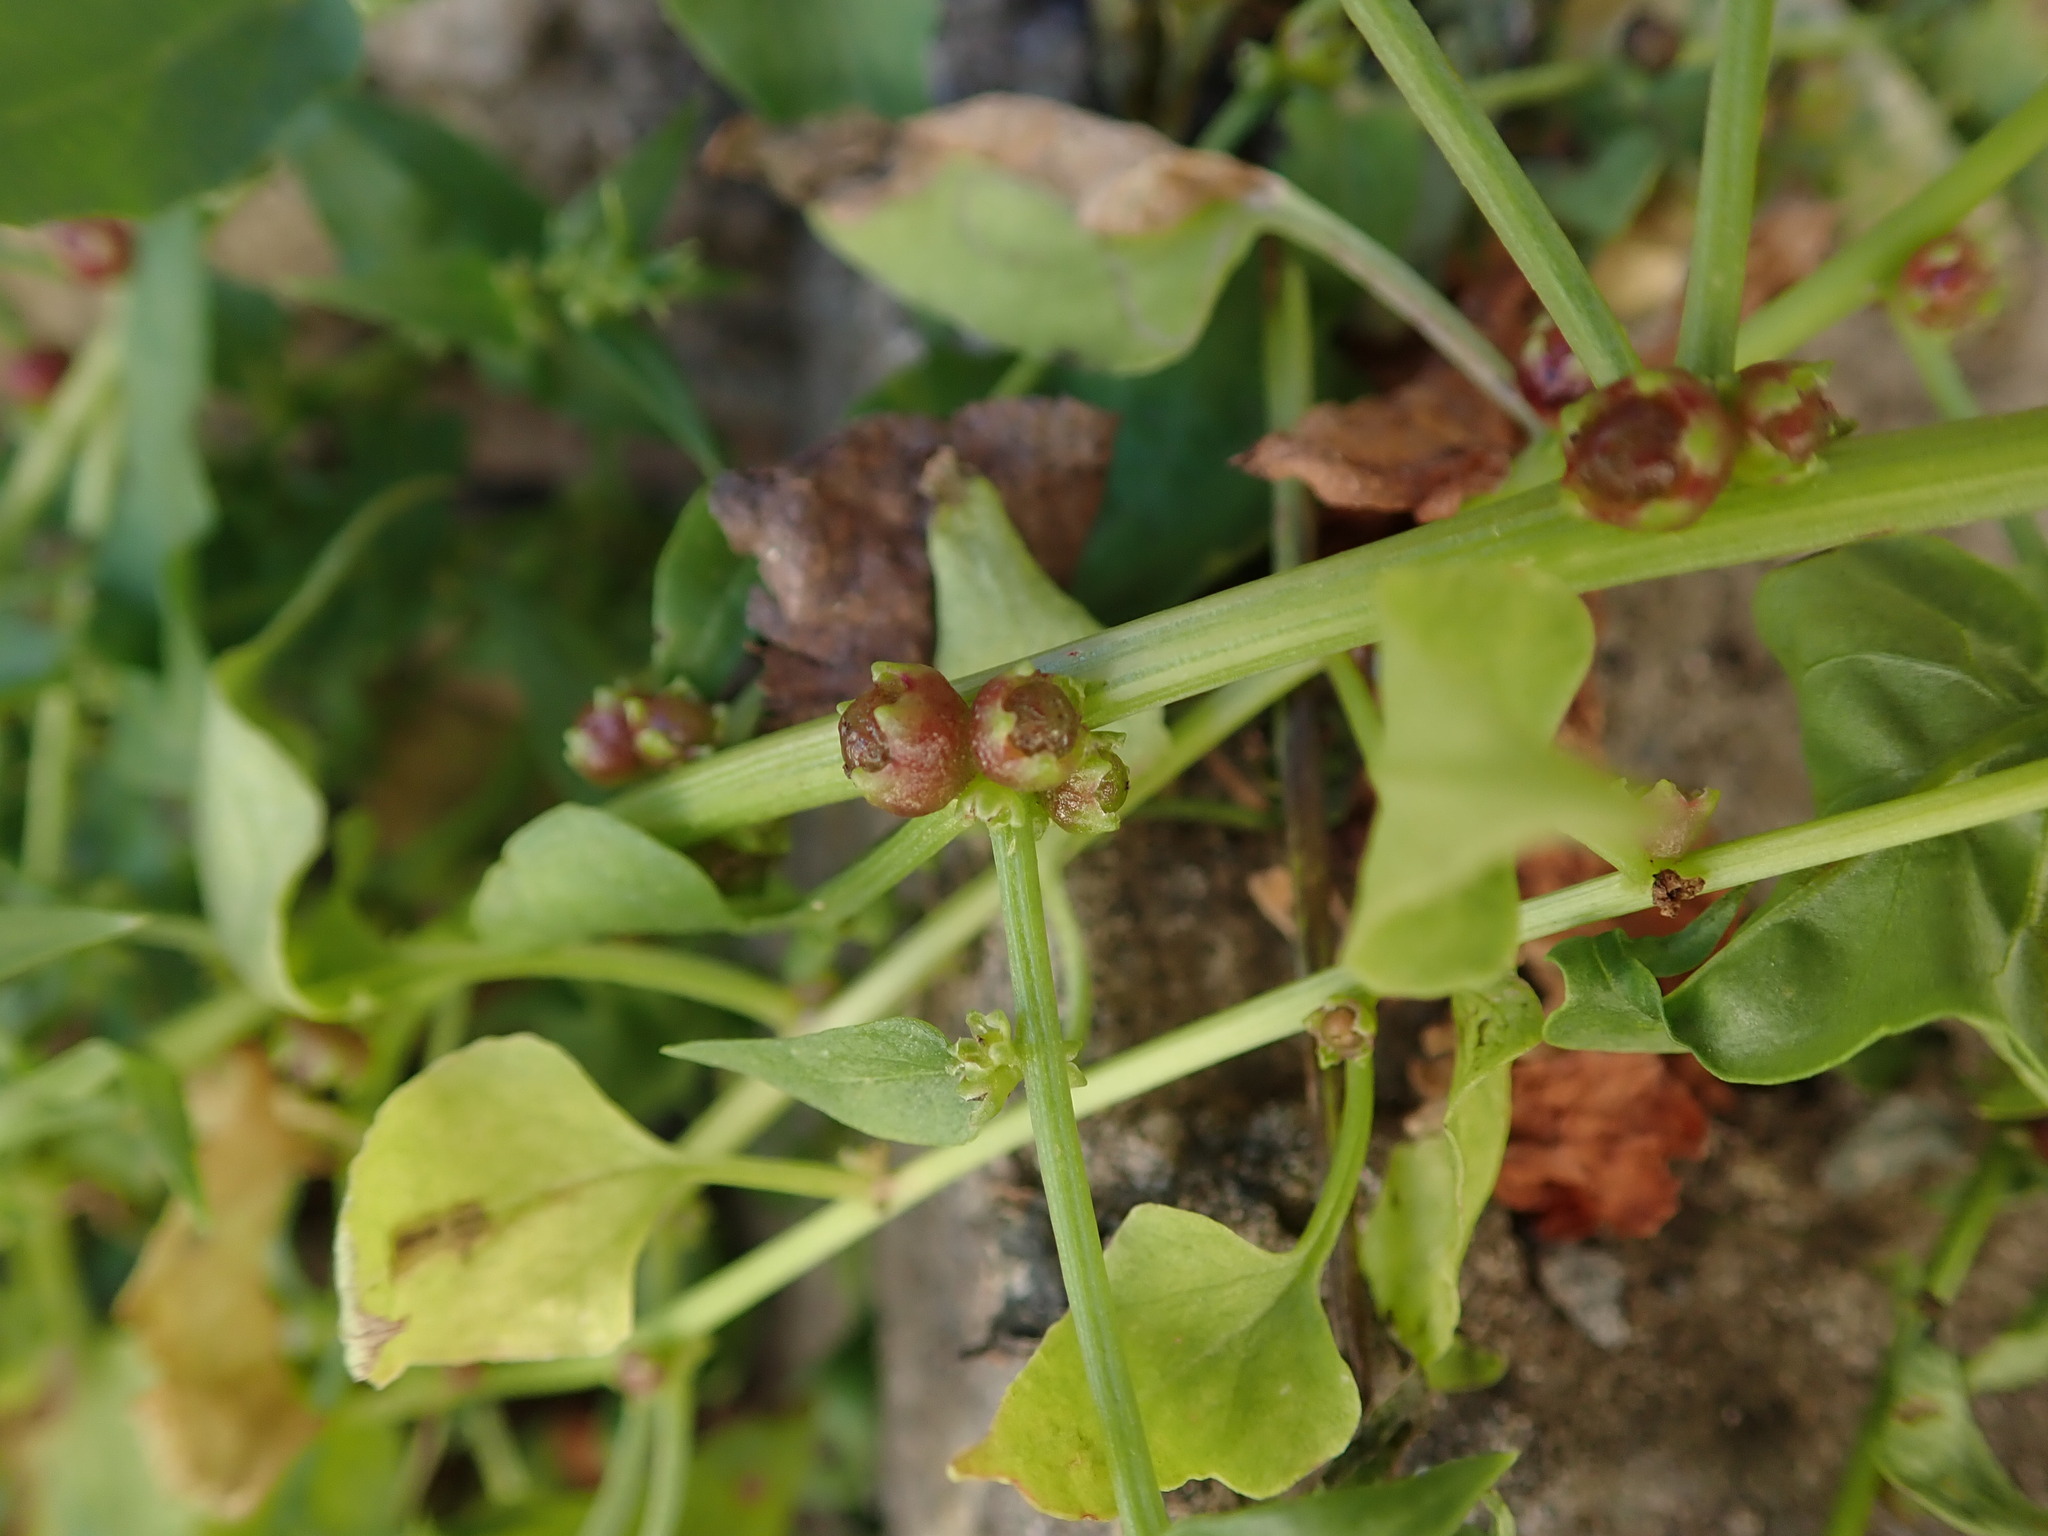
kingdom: Plantae
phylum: Tracheophyta
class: Magnoliopsida
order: Caryophyllales
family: Amaranthaceae
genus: Patellifolia
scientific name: Patellifolia procumbens
